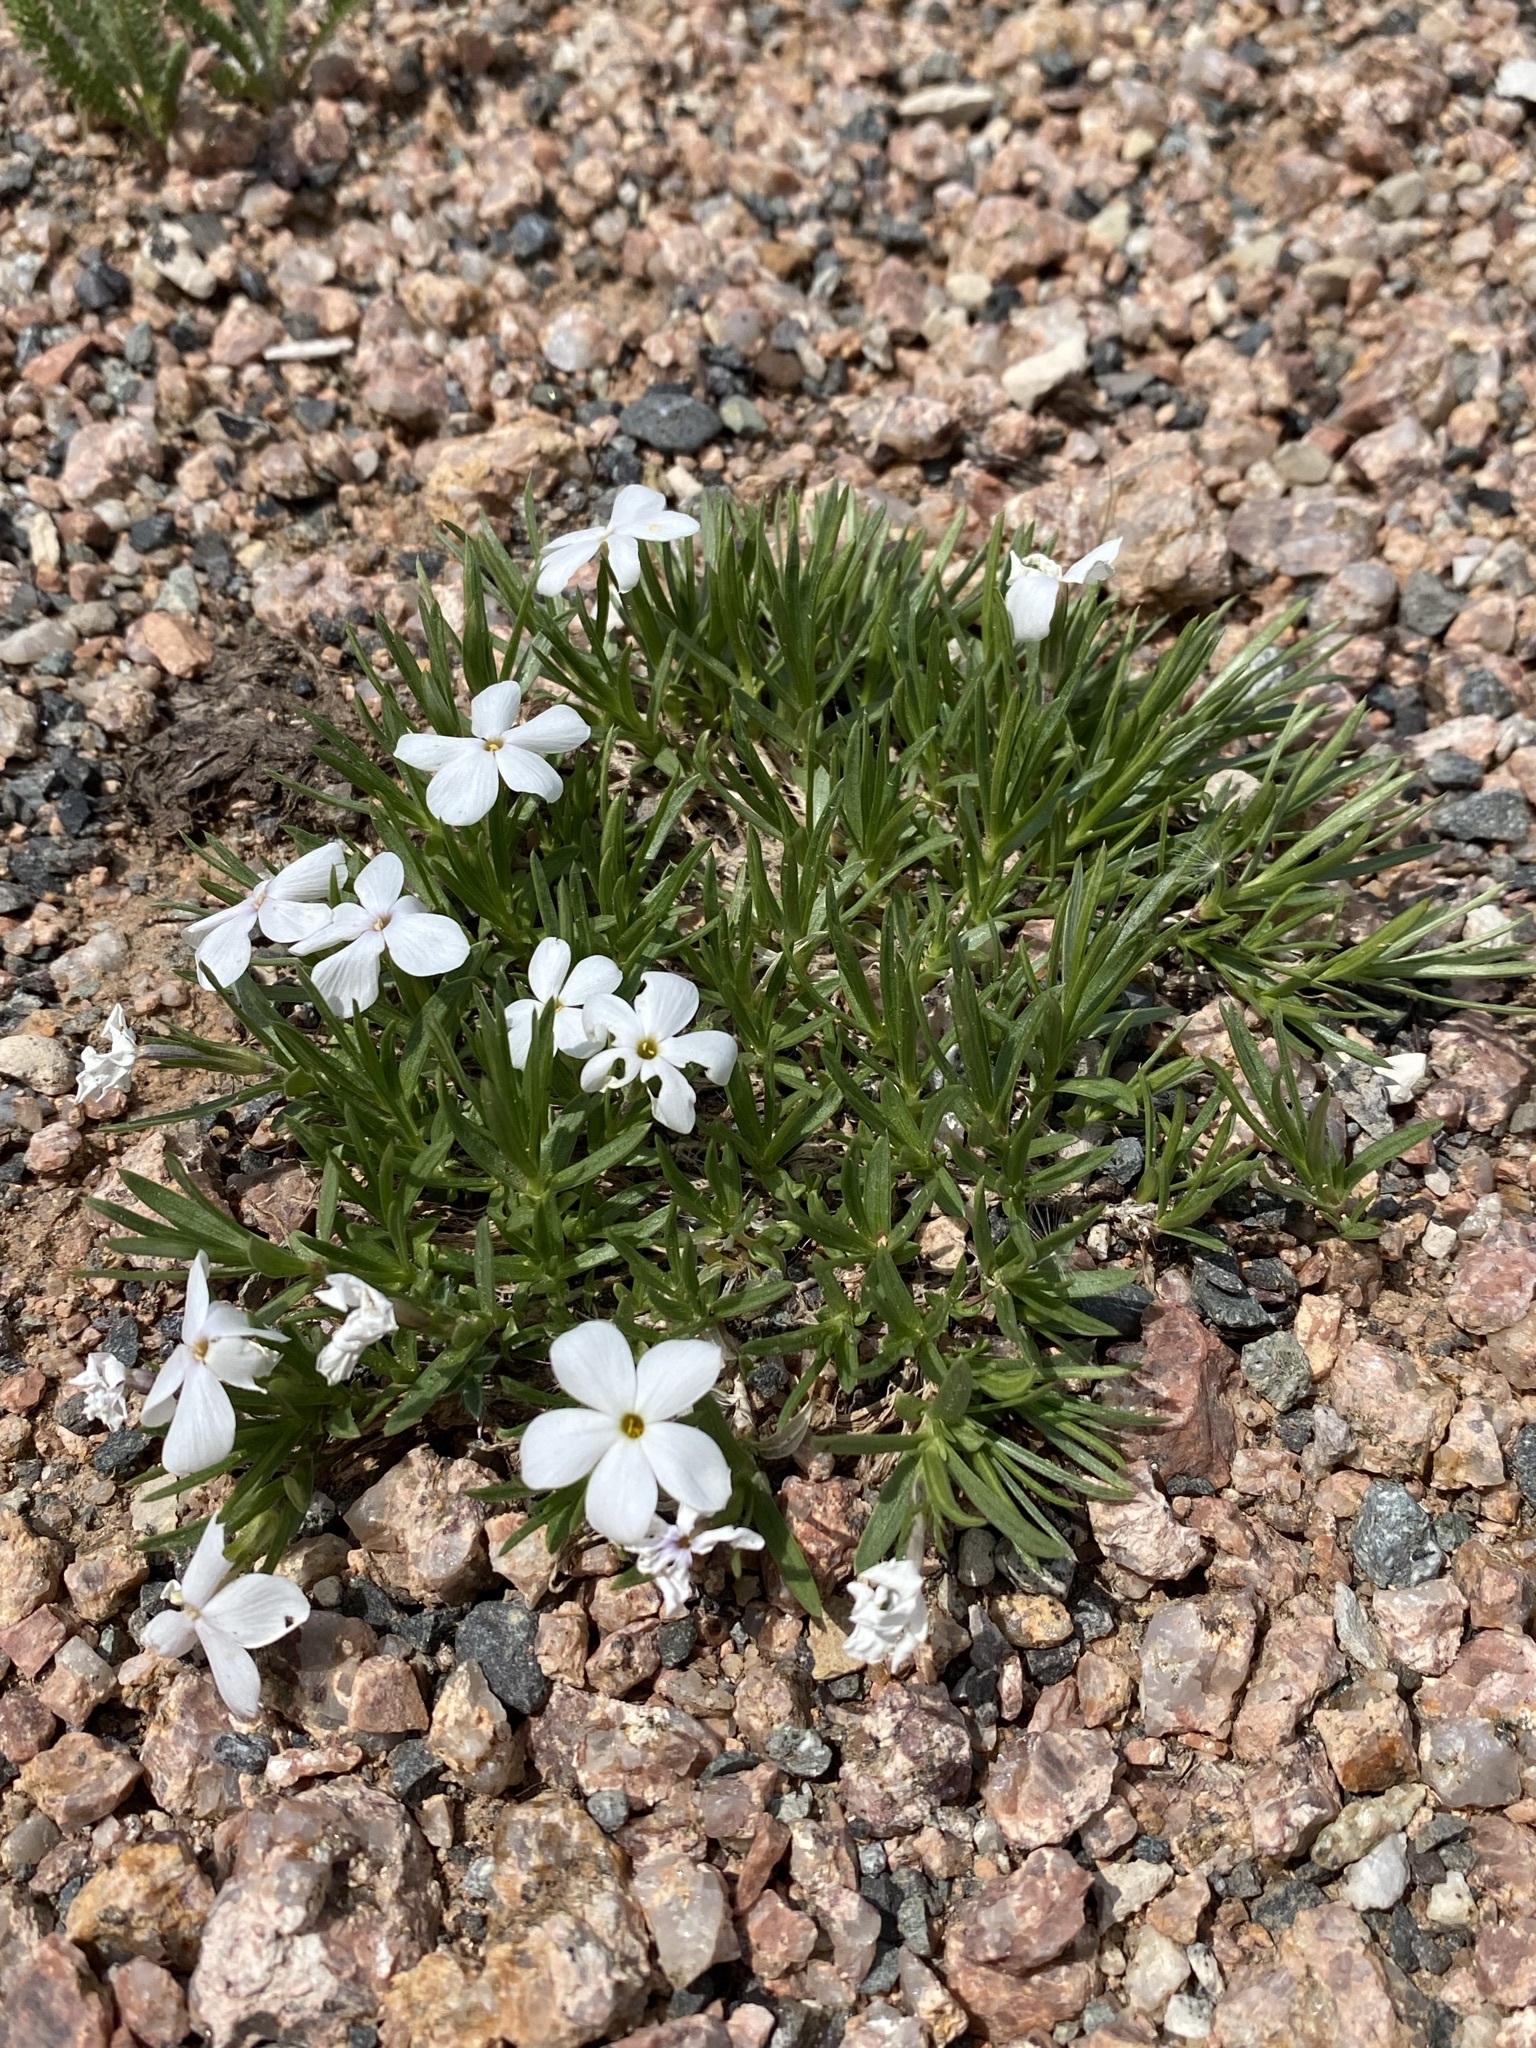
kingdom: Plantae
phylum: Tracheophyta
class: Magnoliopsida
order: Ericales
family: Polemoniaceae
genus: Phlox
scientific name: Phlox multiflora
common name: Rocky mountain phlox
